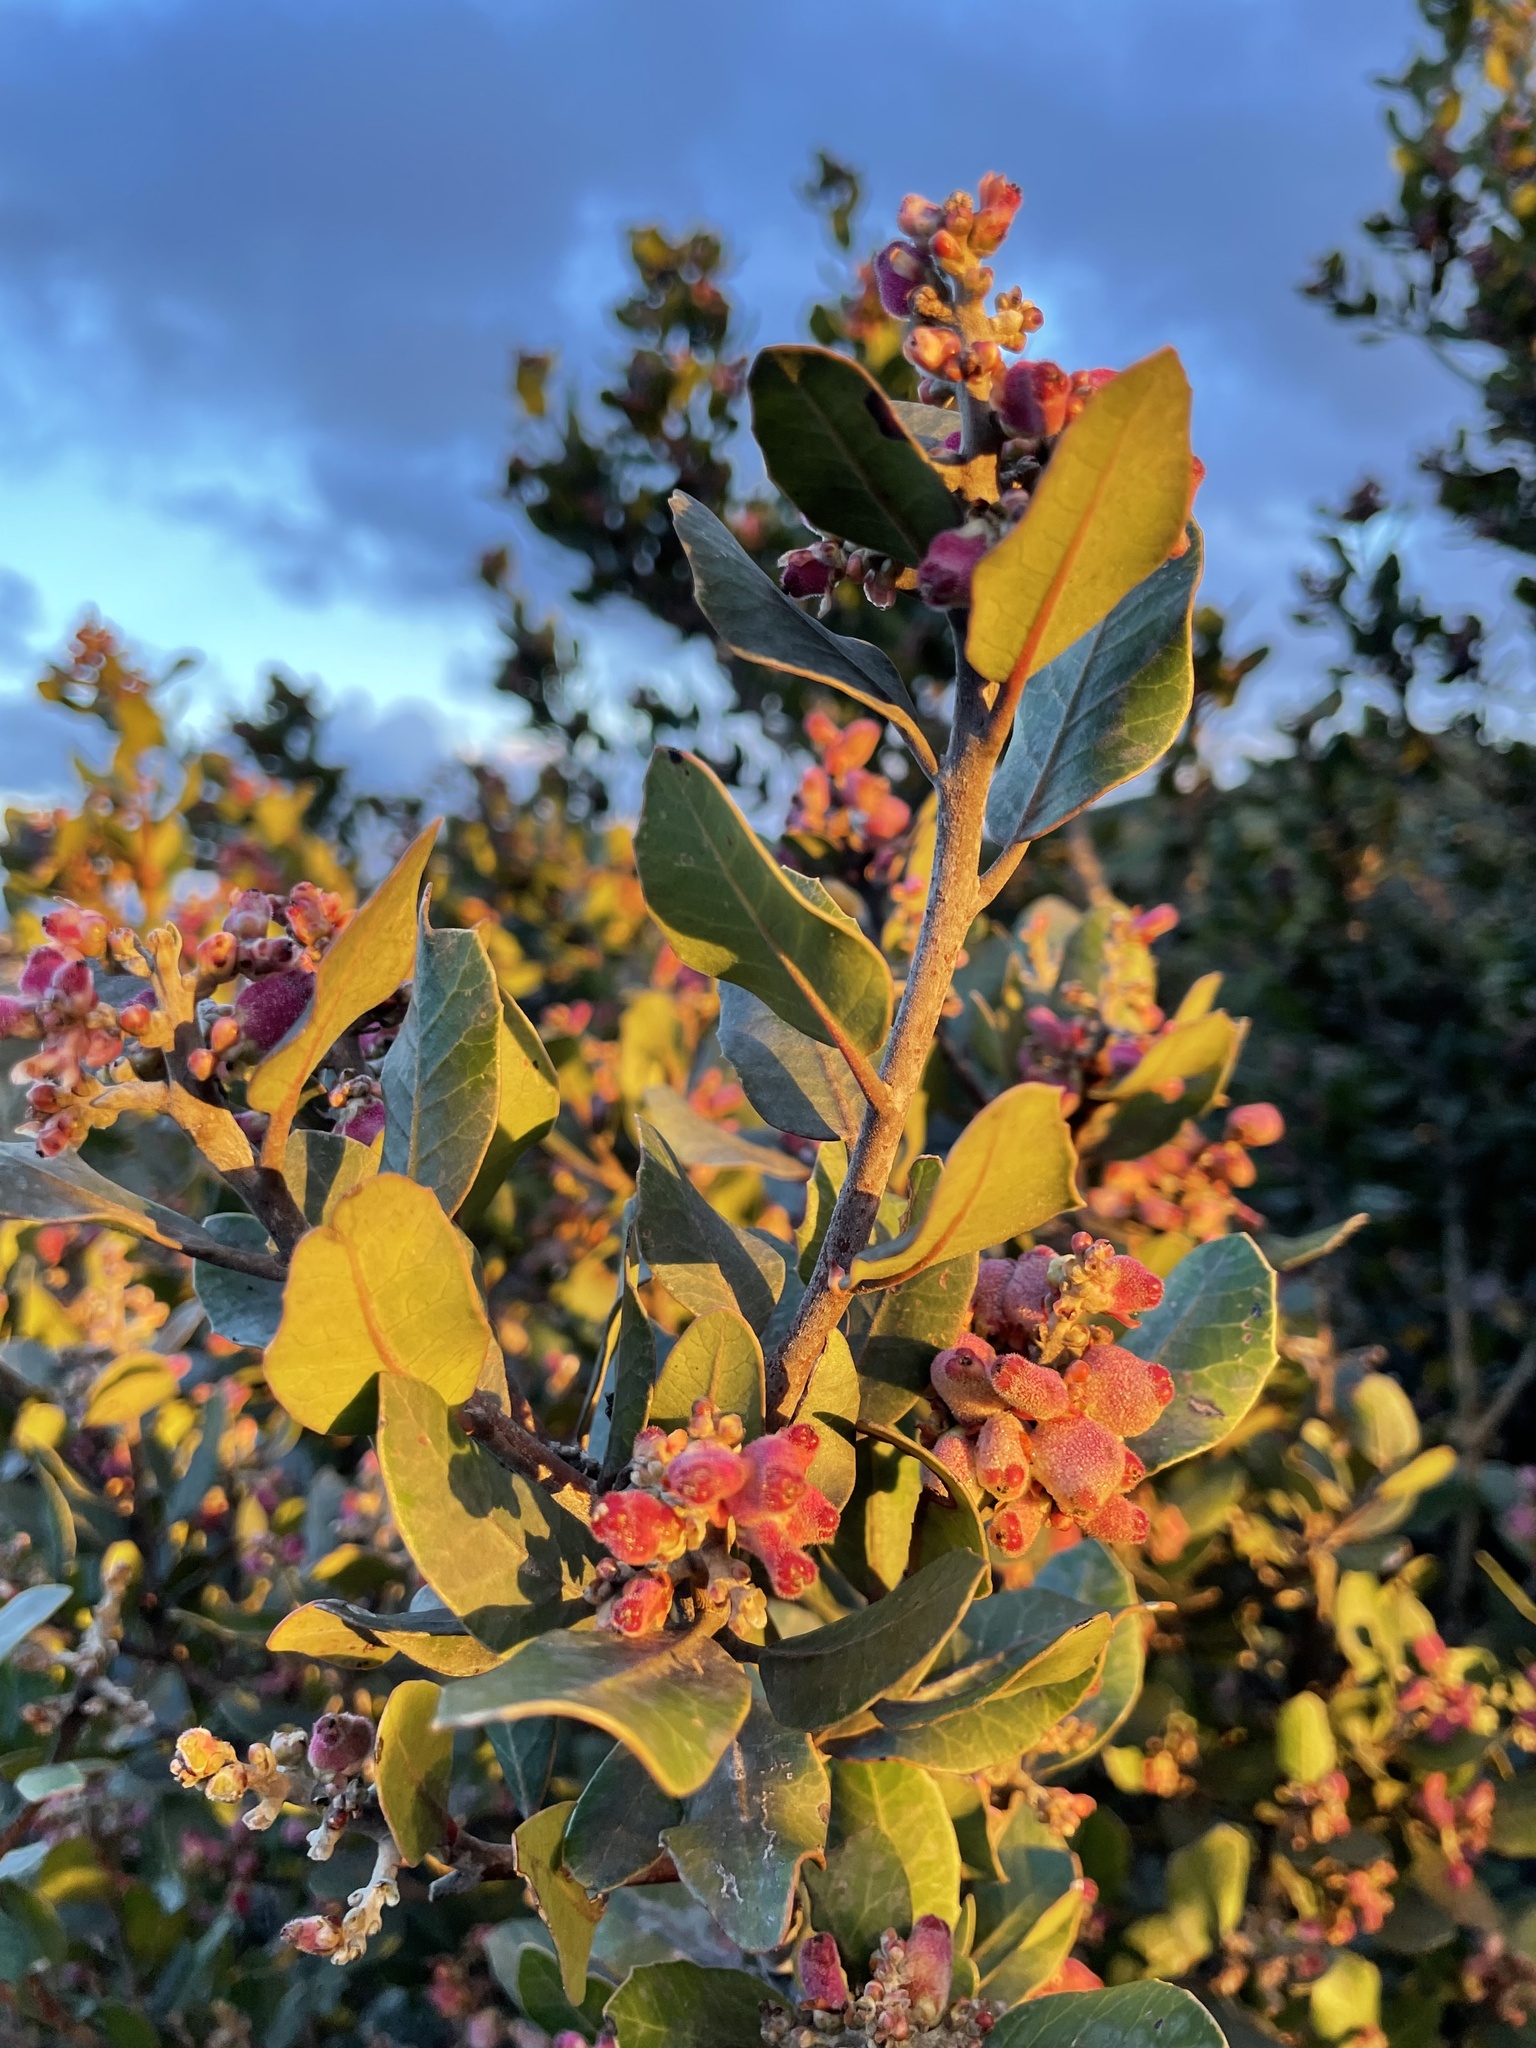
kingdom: Plantae
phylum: Tracheophyta
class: Magnoliopsida
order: Sapindales
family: Anacardiaceae
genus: Rhus
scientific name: Rhus integrifolia
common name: Lemonade sumac
